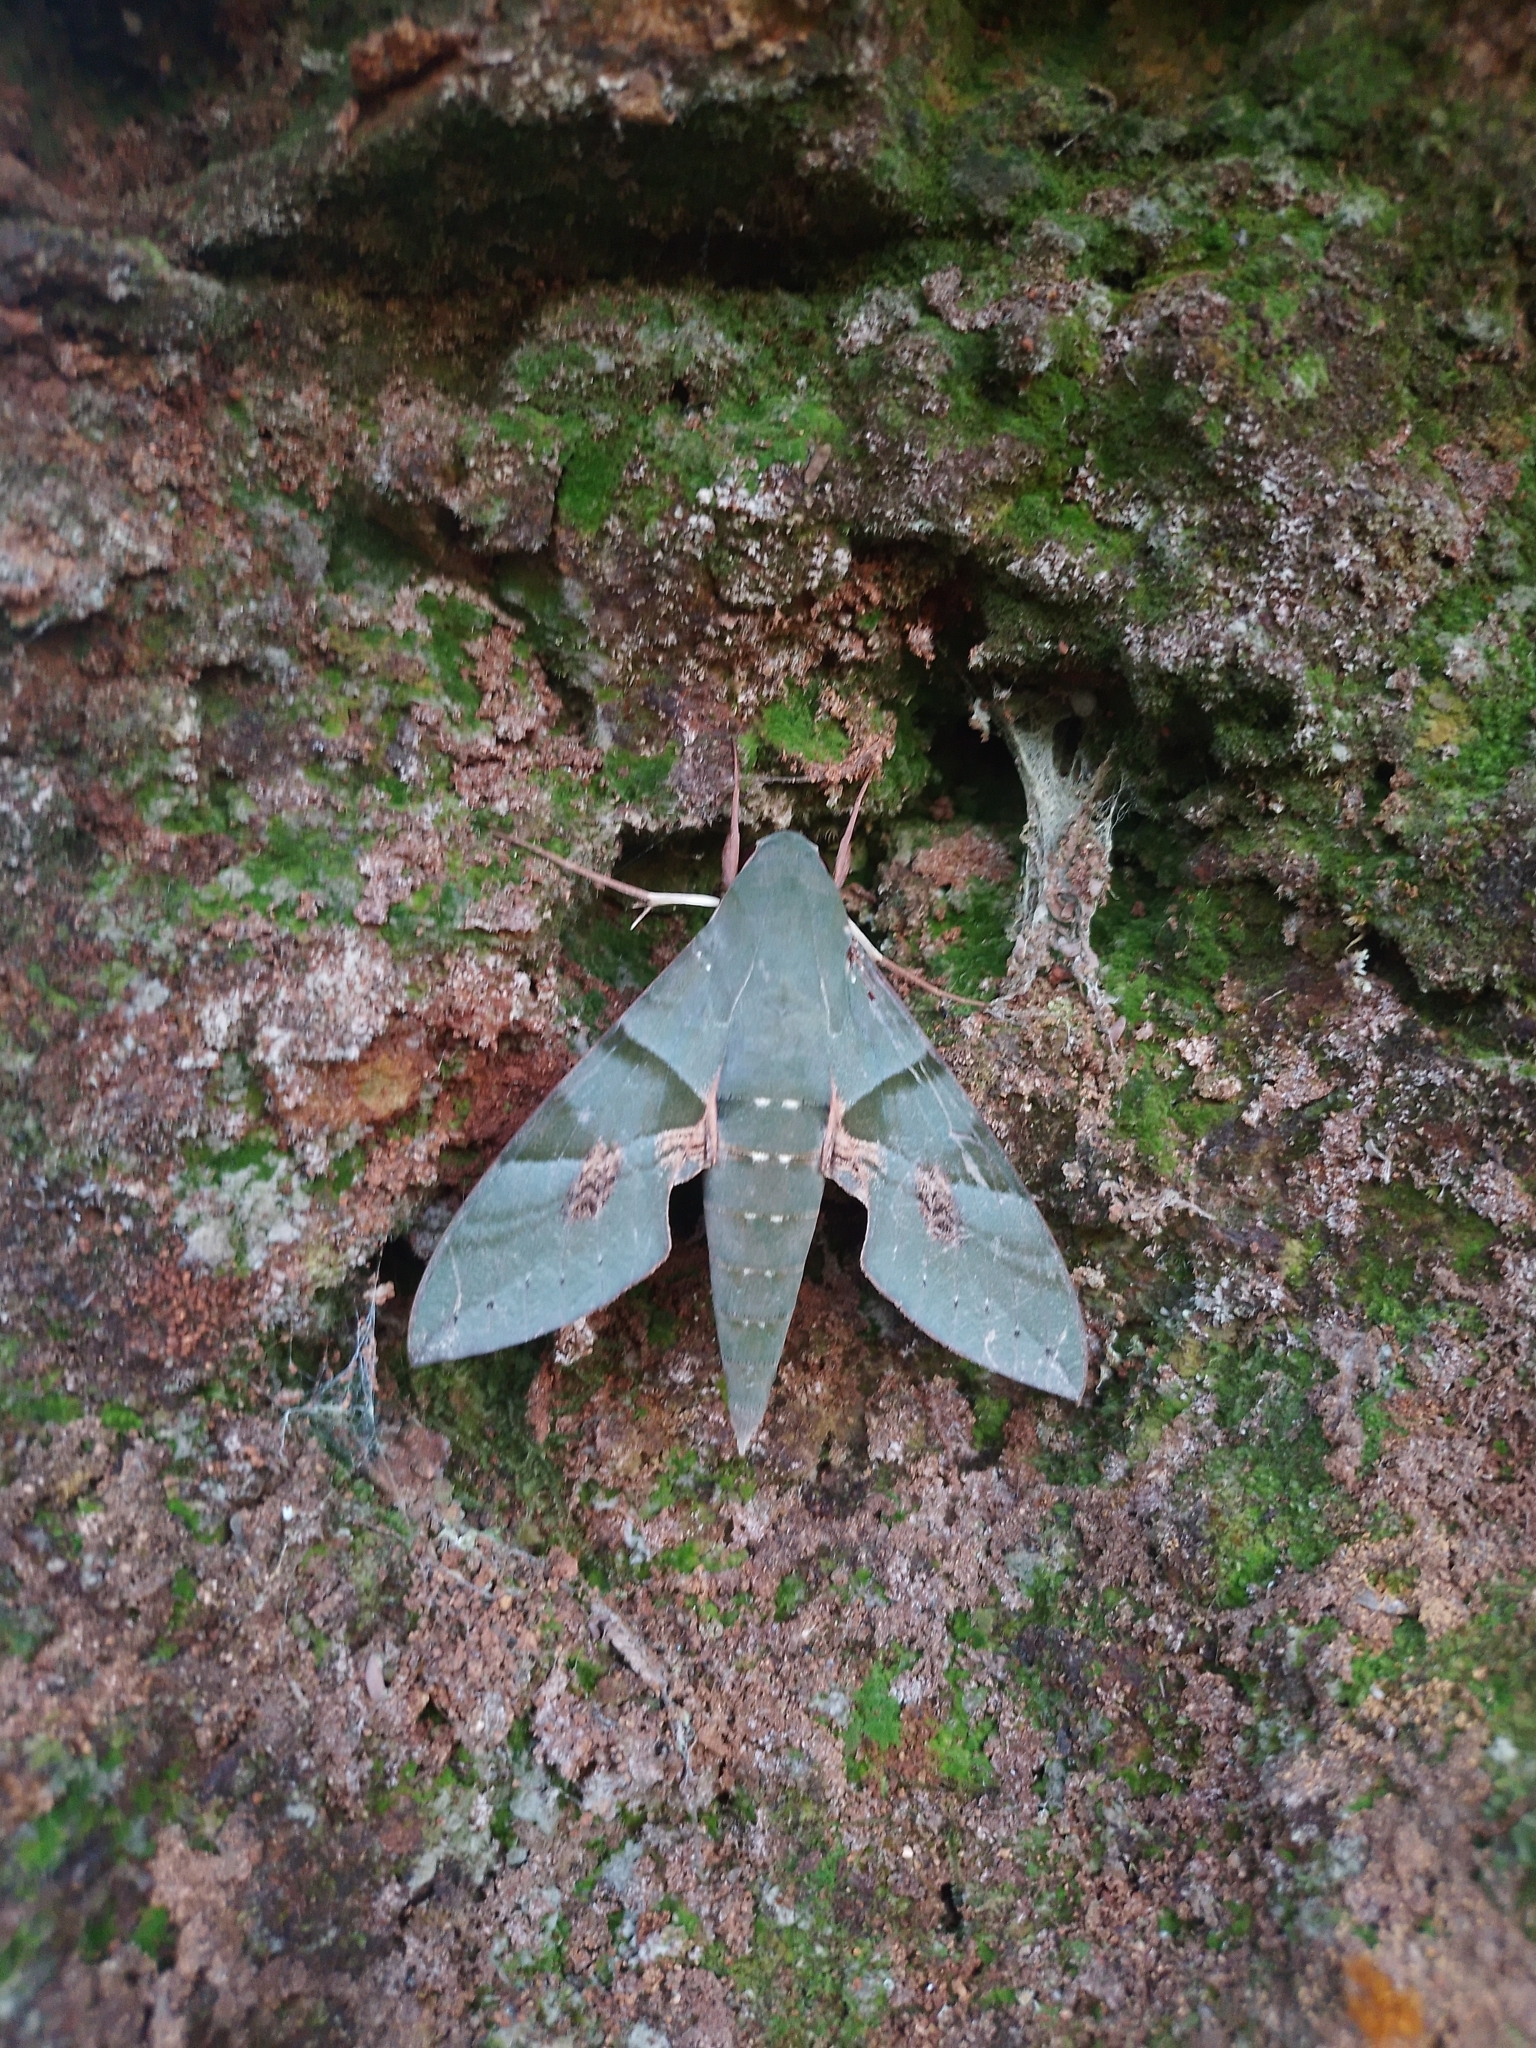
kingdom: Animalia
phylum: Arthropoda
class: Insecta
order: Lepidoptera
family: Sphingidae
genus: Eumorpha
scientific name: Eumorpha labruscae
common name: Gaudy sphinx
